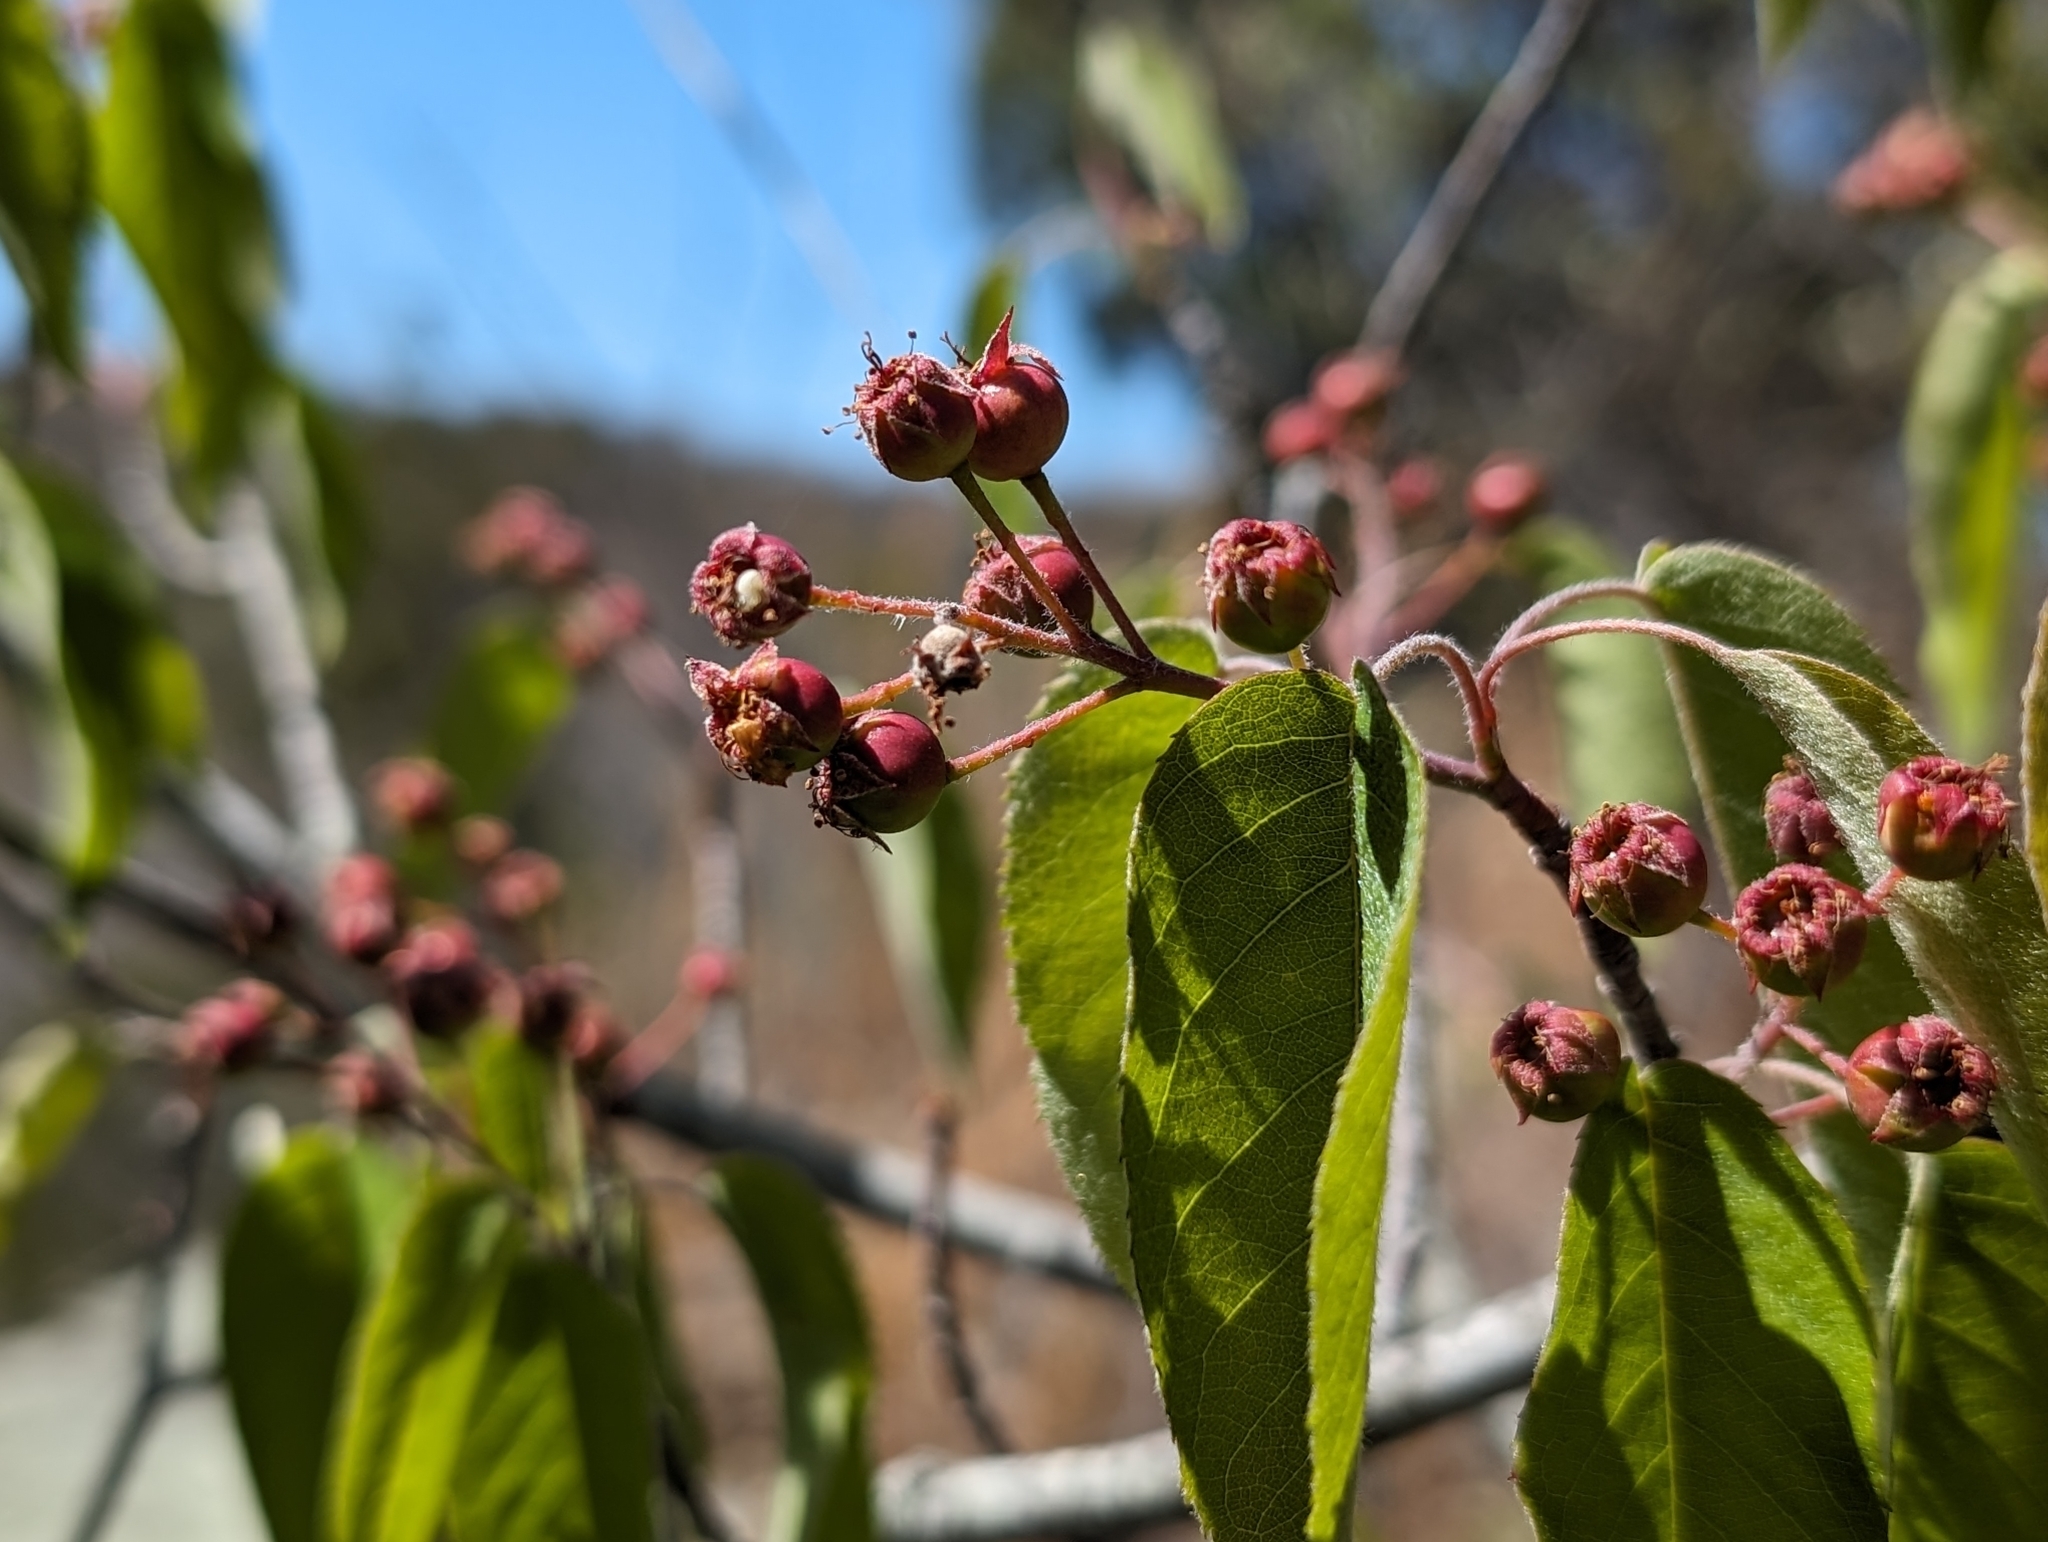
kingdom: Plantae
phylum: Tracheophyta
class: Magnoliopsida
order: Rosales
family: Rosaceae
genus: Amelanchier
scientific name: Amelanchier arborea
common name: Downy serviceberry
